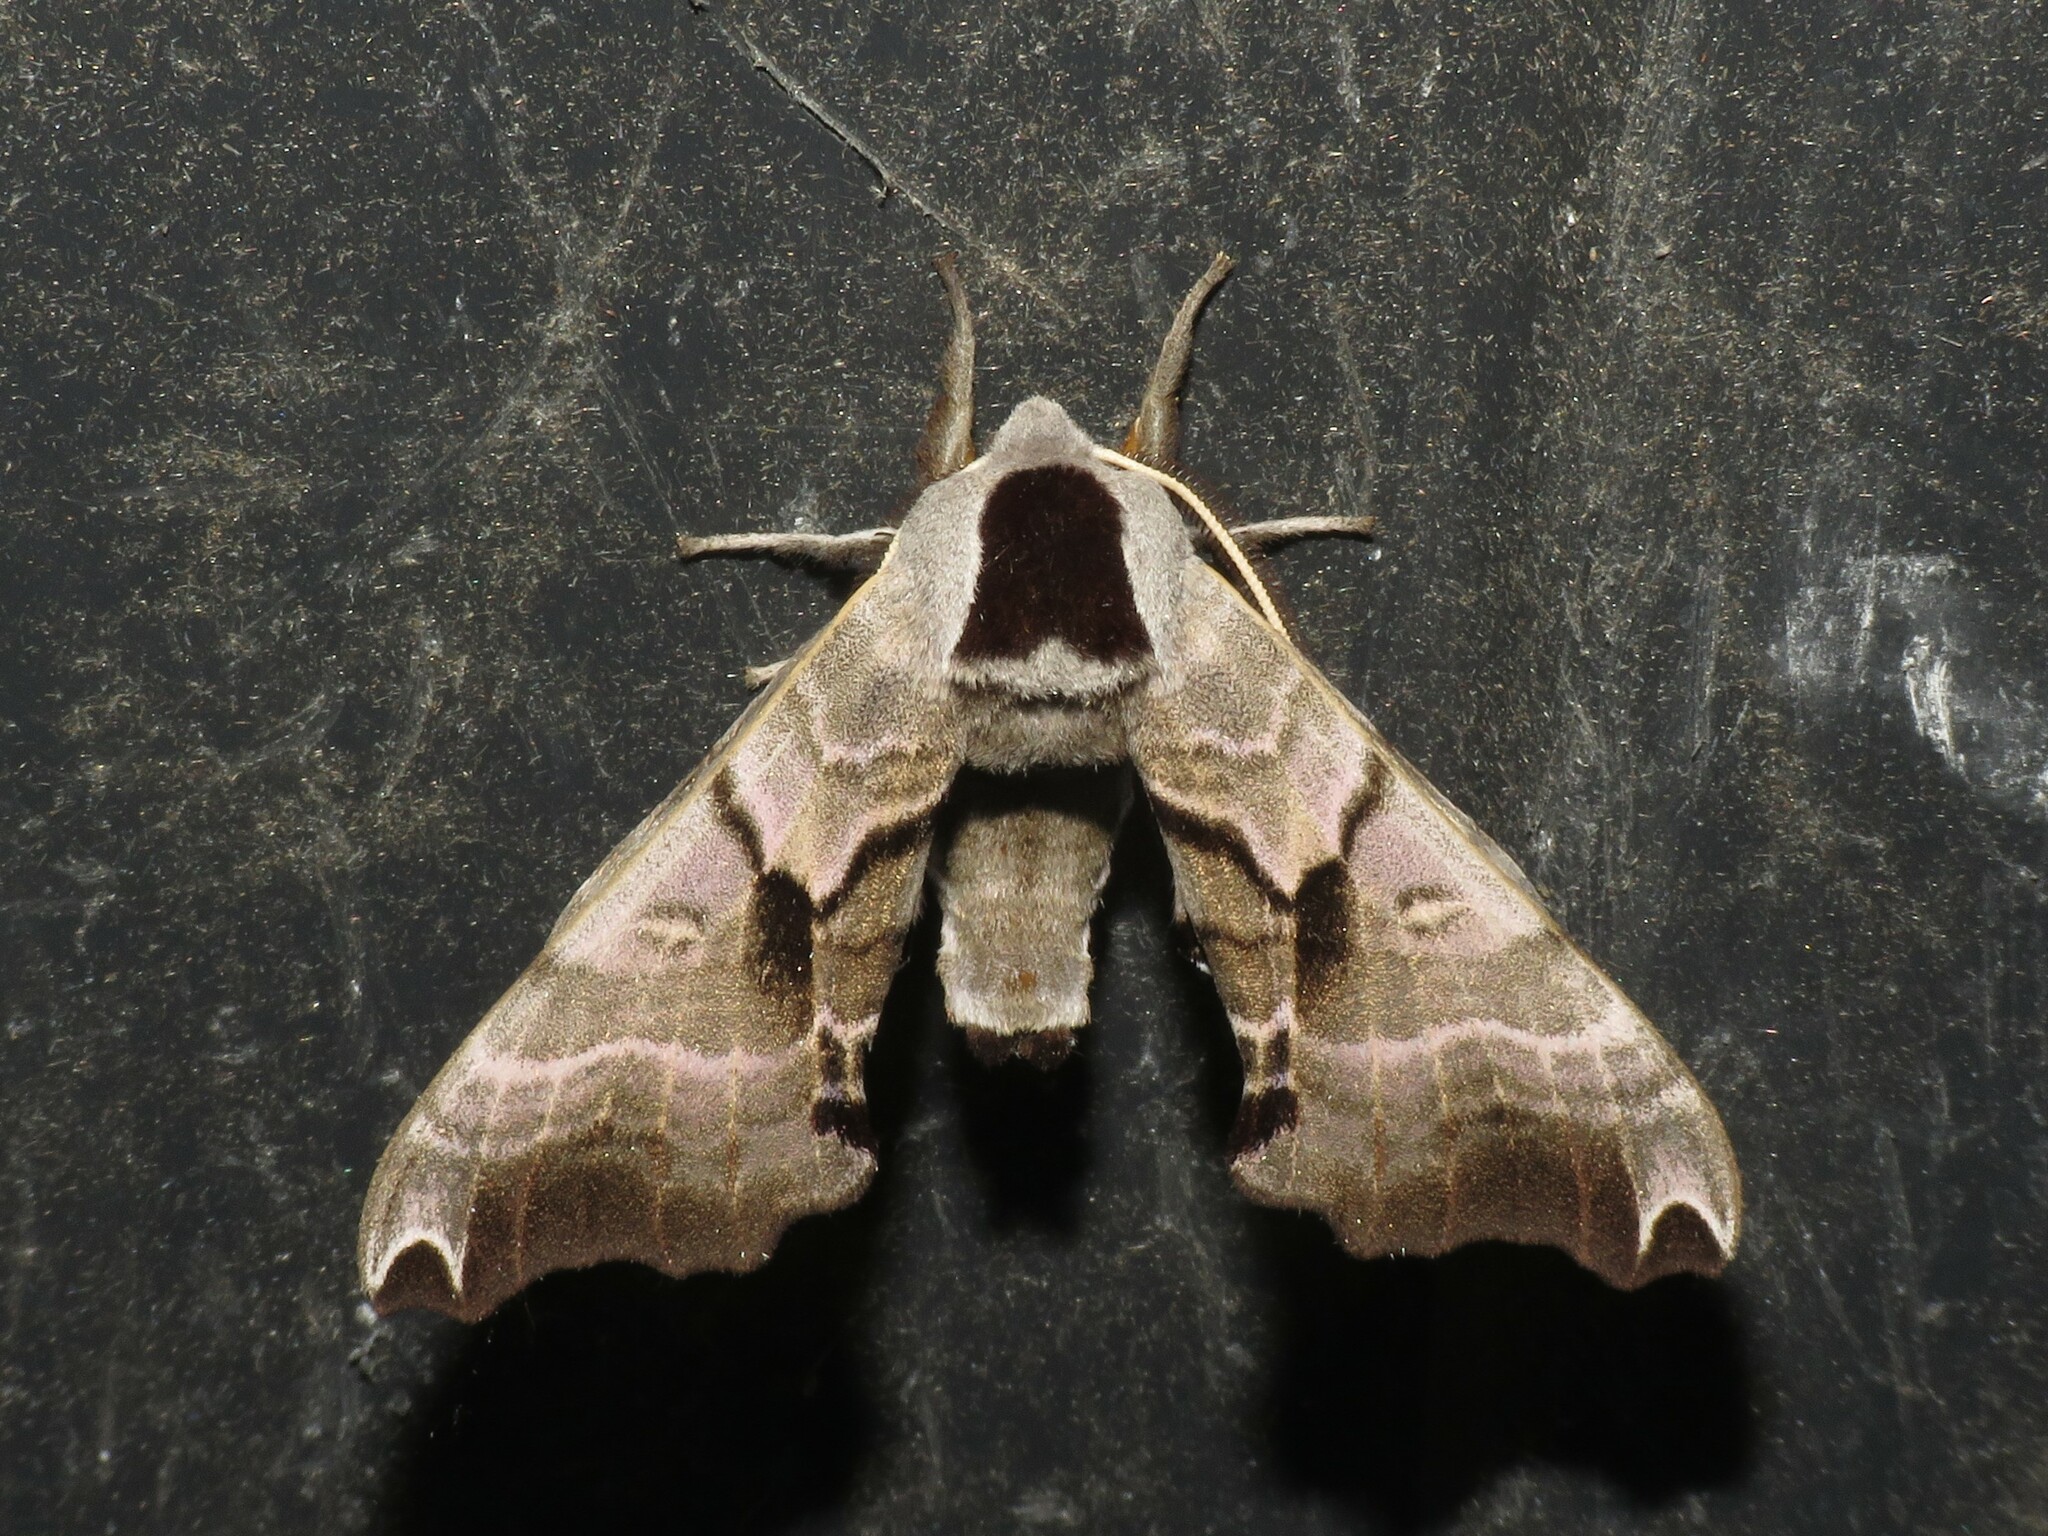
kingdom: Animalia
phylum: Arthropoda
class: Insecta
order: Lepidoptera
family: Sphingidae
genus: Smerinthus
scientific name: Smerinthus jamaicensis
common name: Twin spotted sphinx
